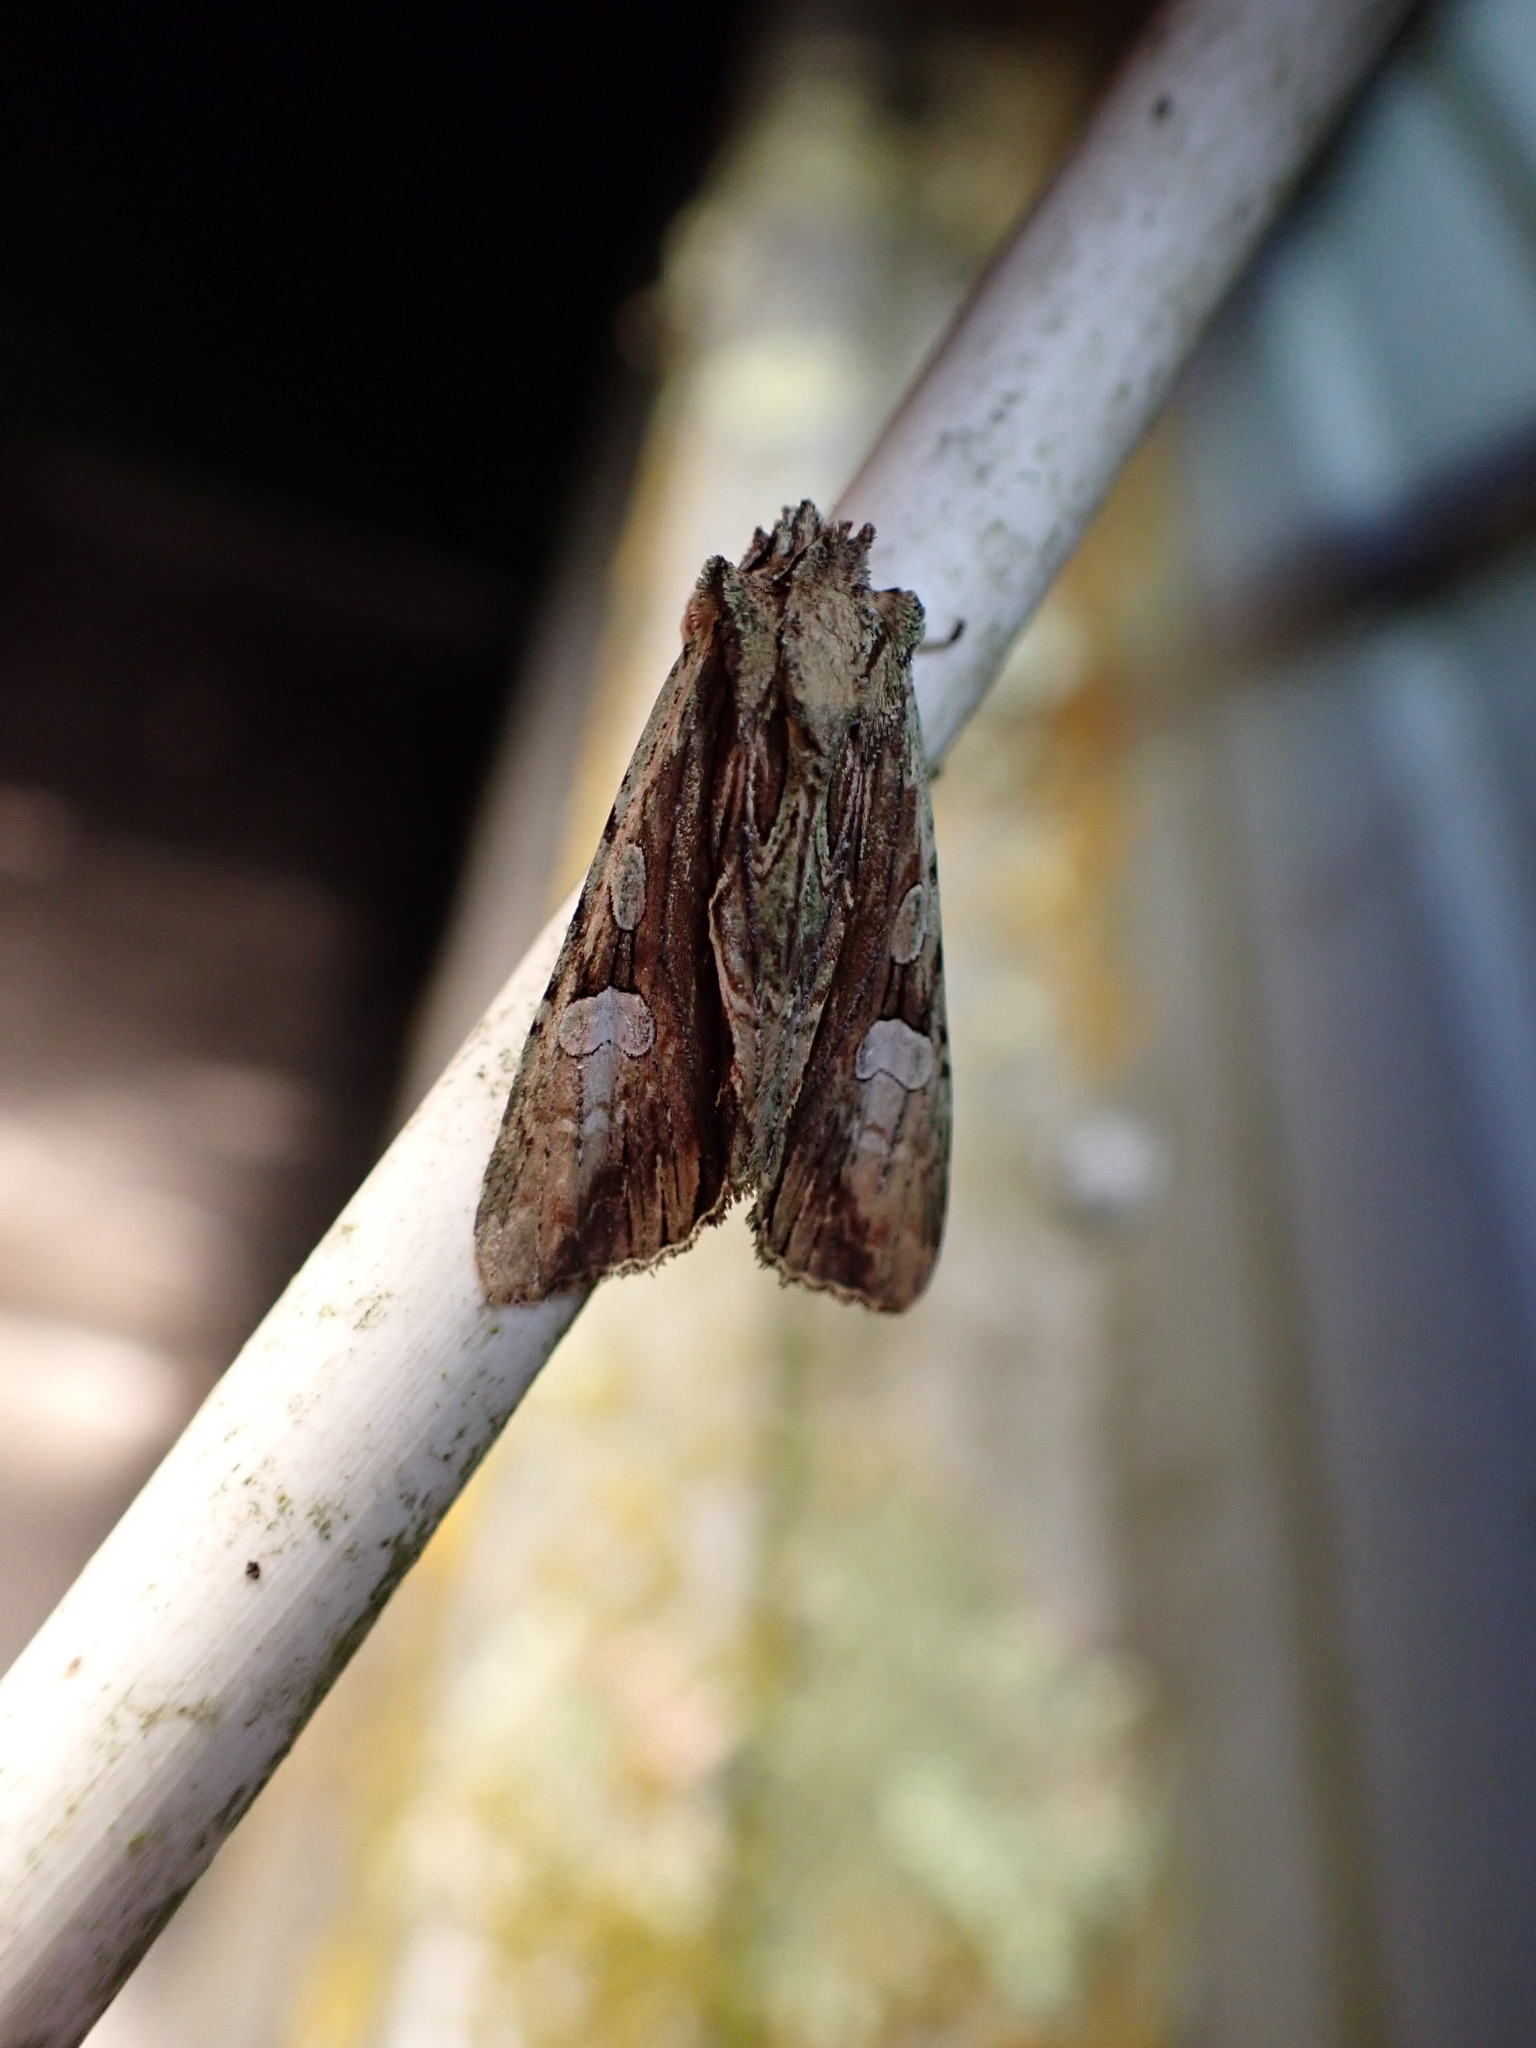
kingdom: Animalia
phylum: Arthropoda
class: Insecta
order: Lepidoptera
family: Noctuidae
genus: Meterana
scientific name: Meterana decorata
